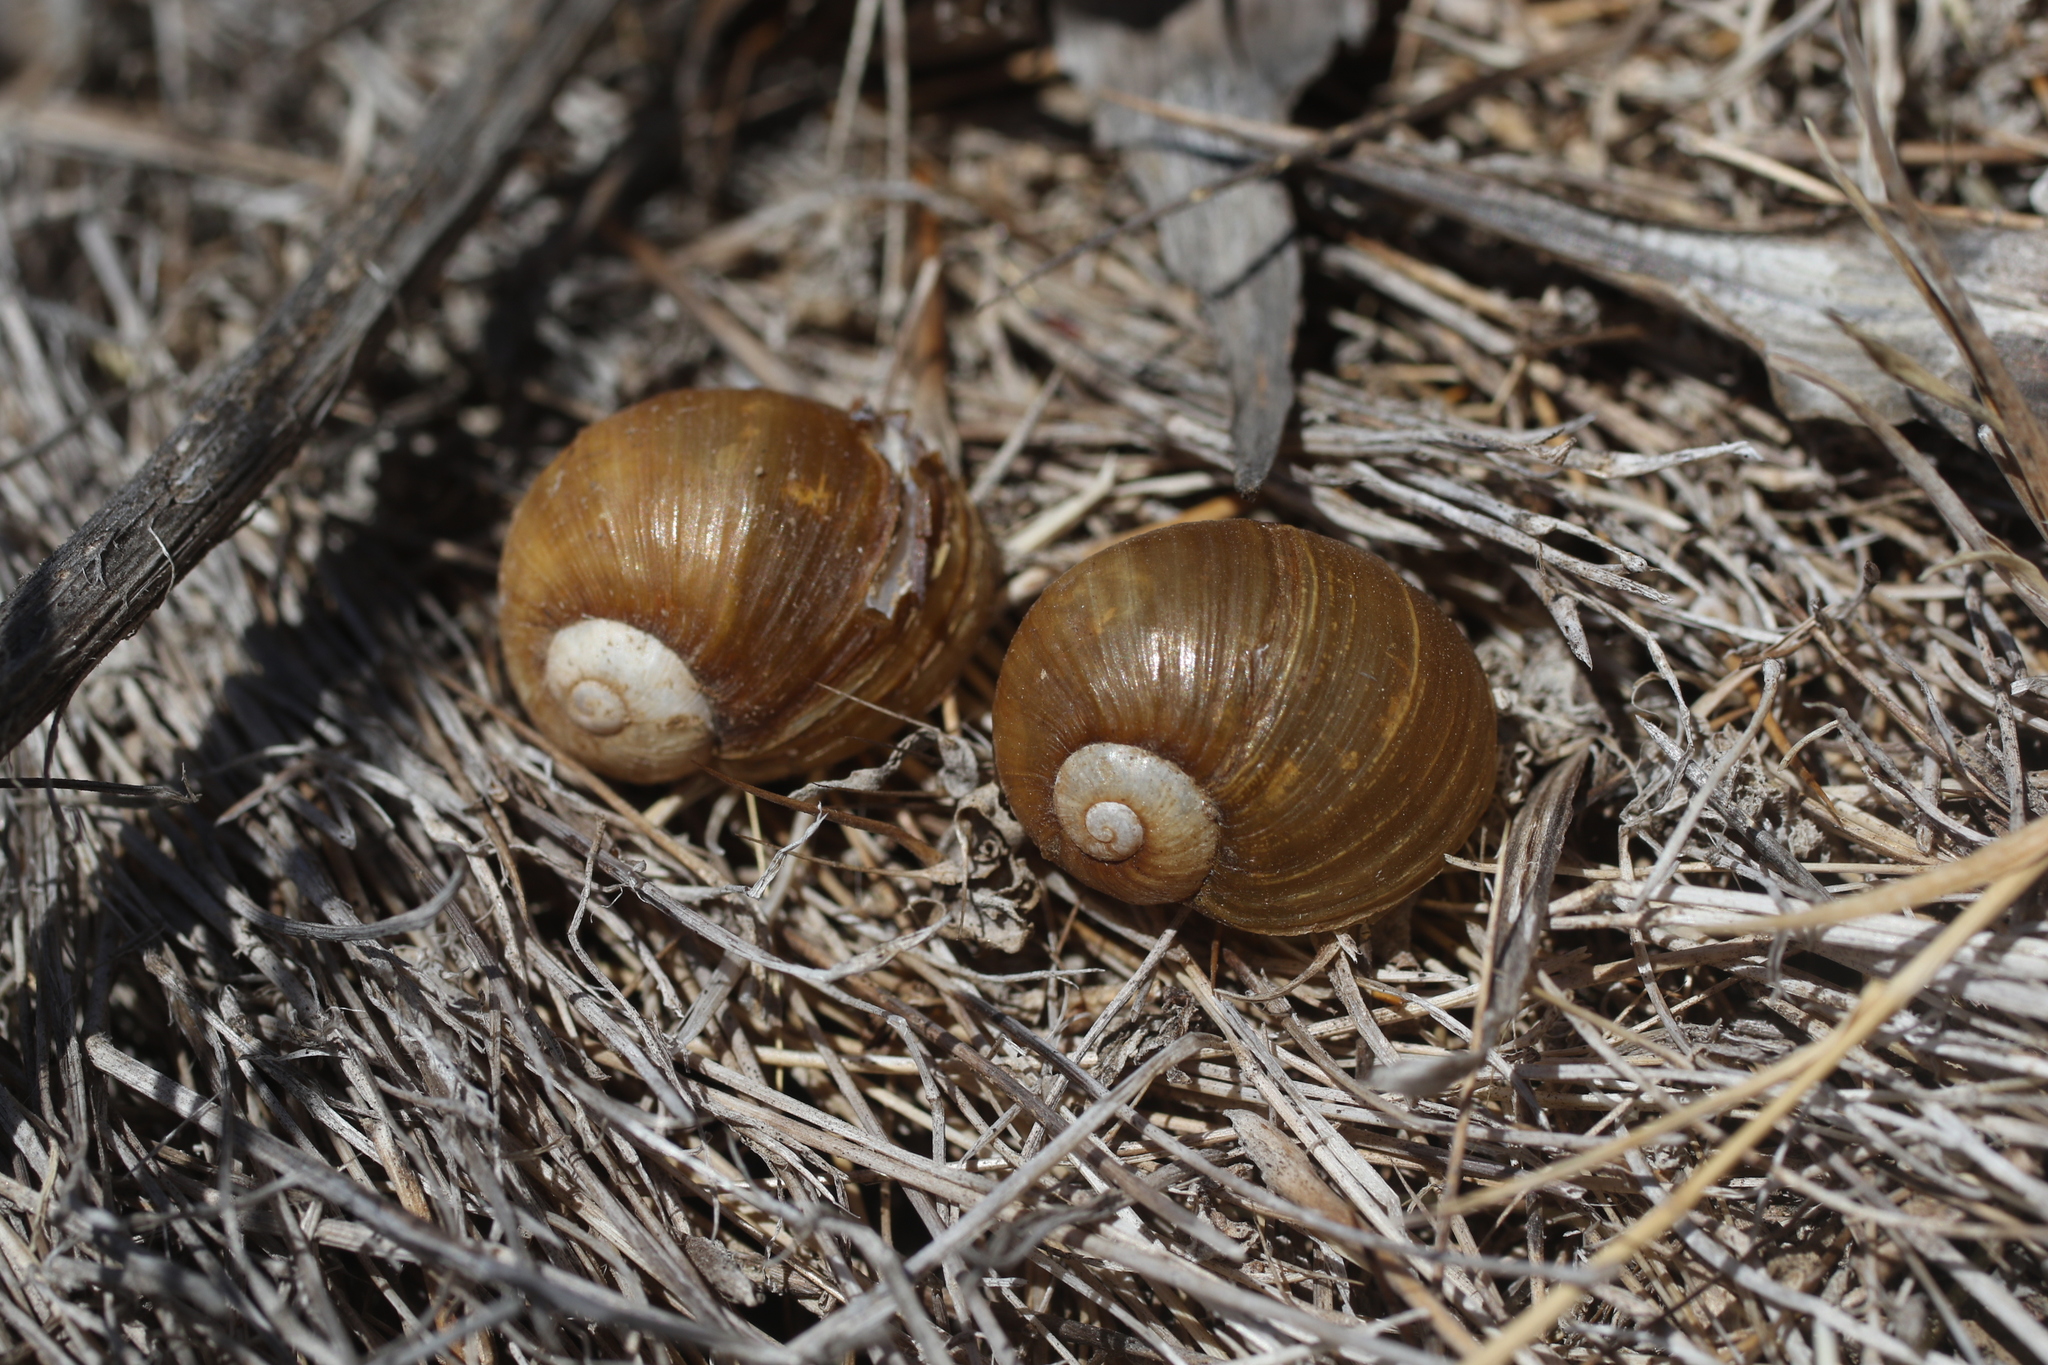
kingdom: Animalia
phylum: Mollusca
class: Gastropoda
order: Stylommatophora
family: Helicidae
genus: Cantareus
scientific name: Cantareus apertus
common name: Green gardensnail
